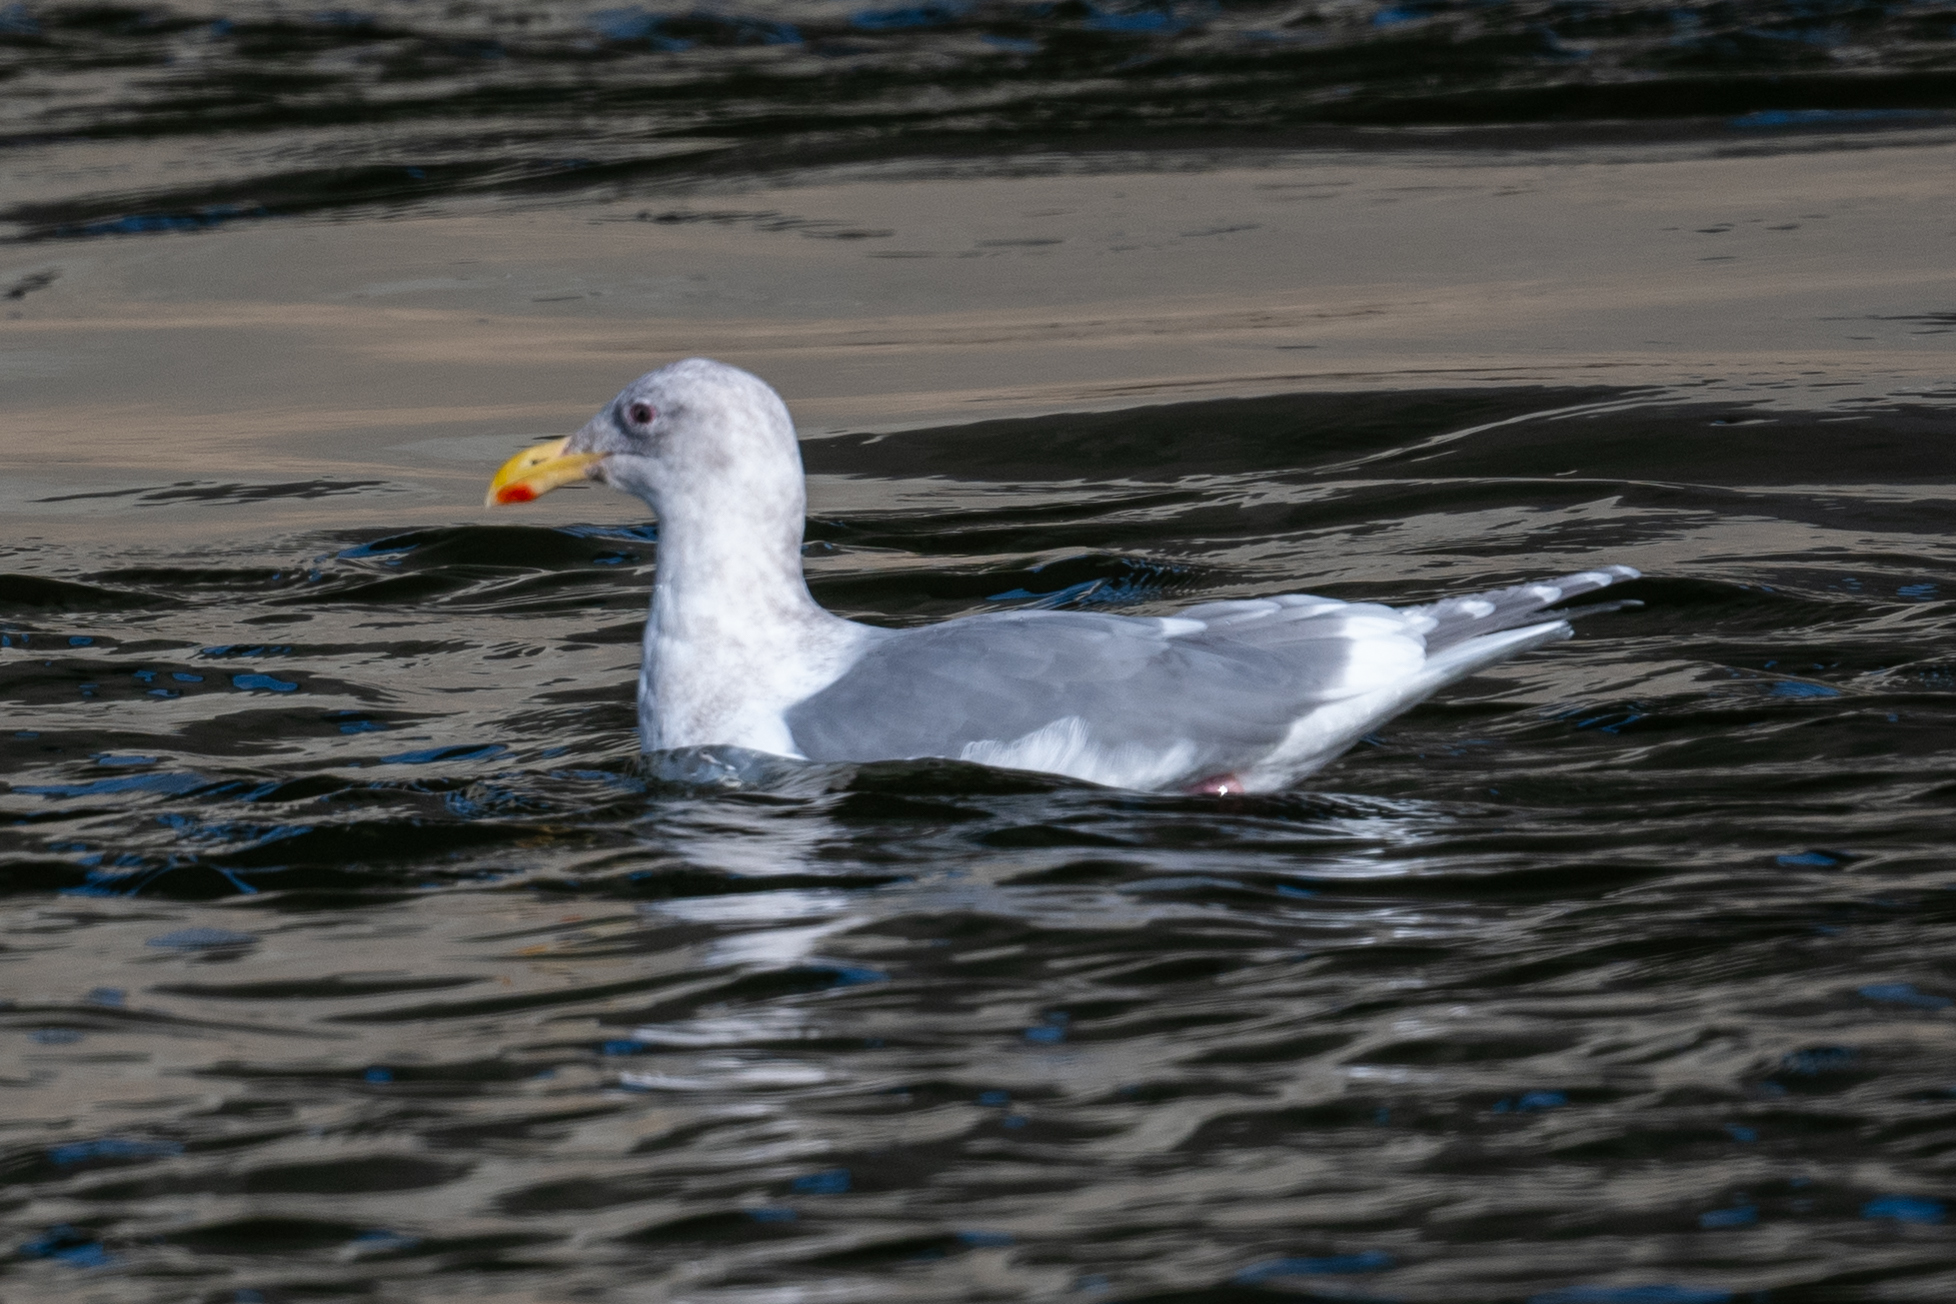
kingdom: Animalia
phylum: Chordata
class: Aves
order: Charadriiformes
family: Laridae
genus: Larus
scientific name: Larus glaucescens
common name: Glaucous-winged gull
